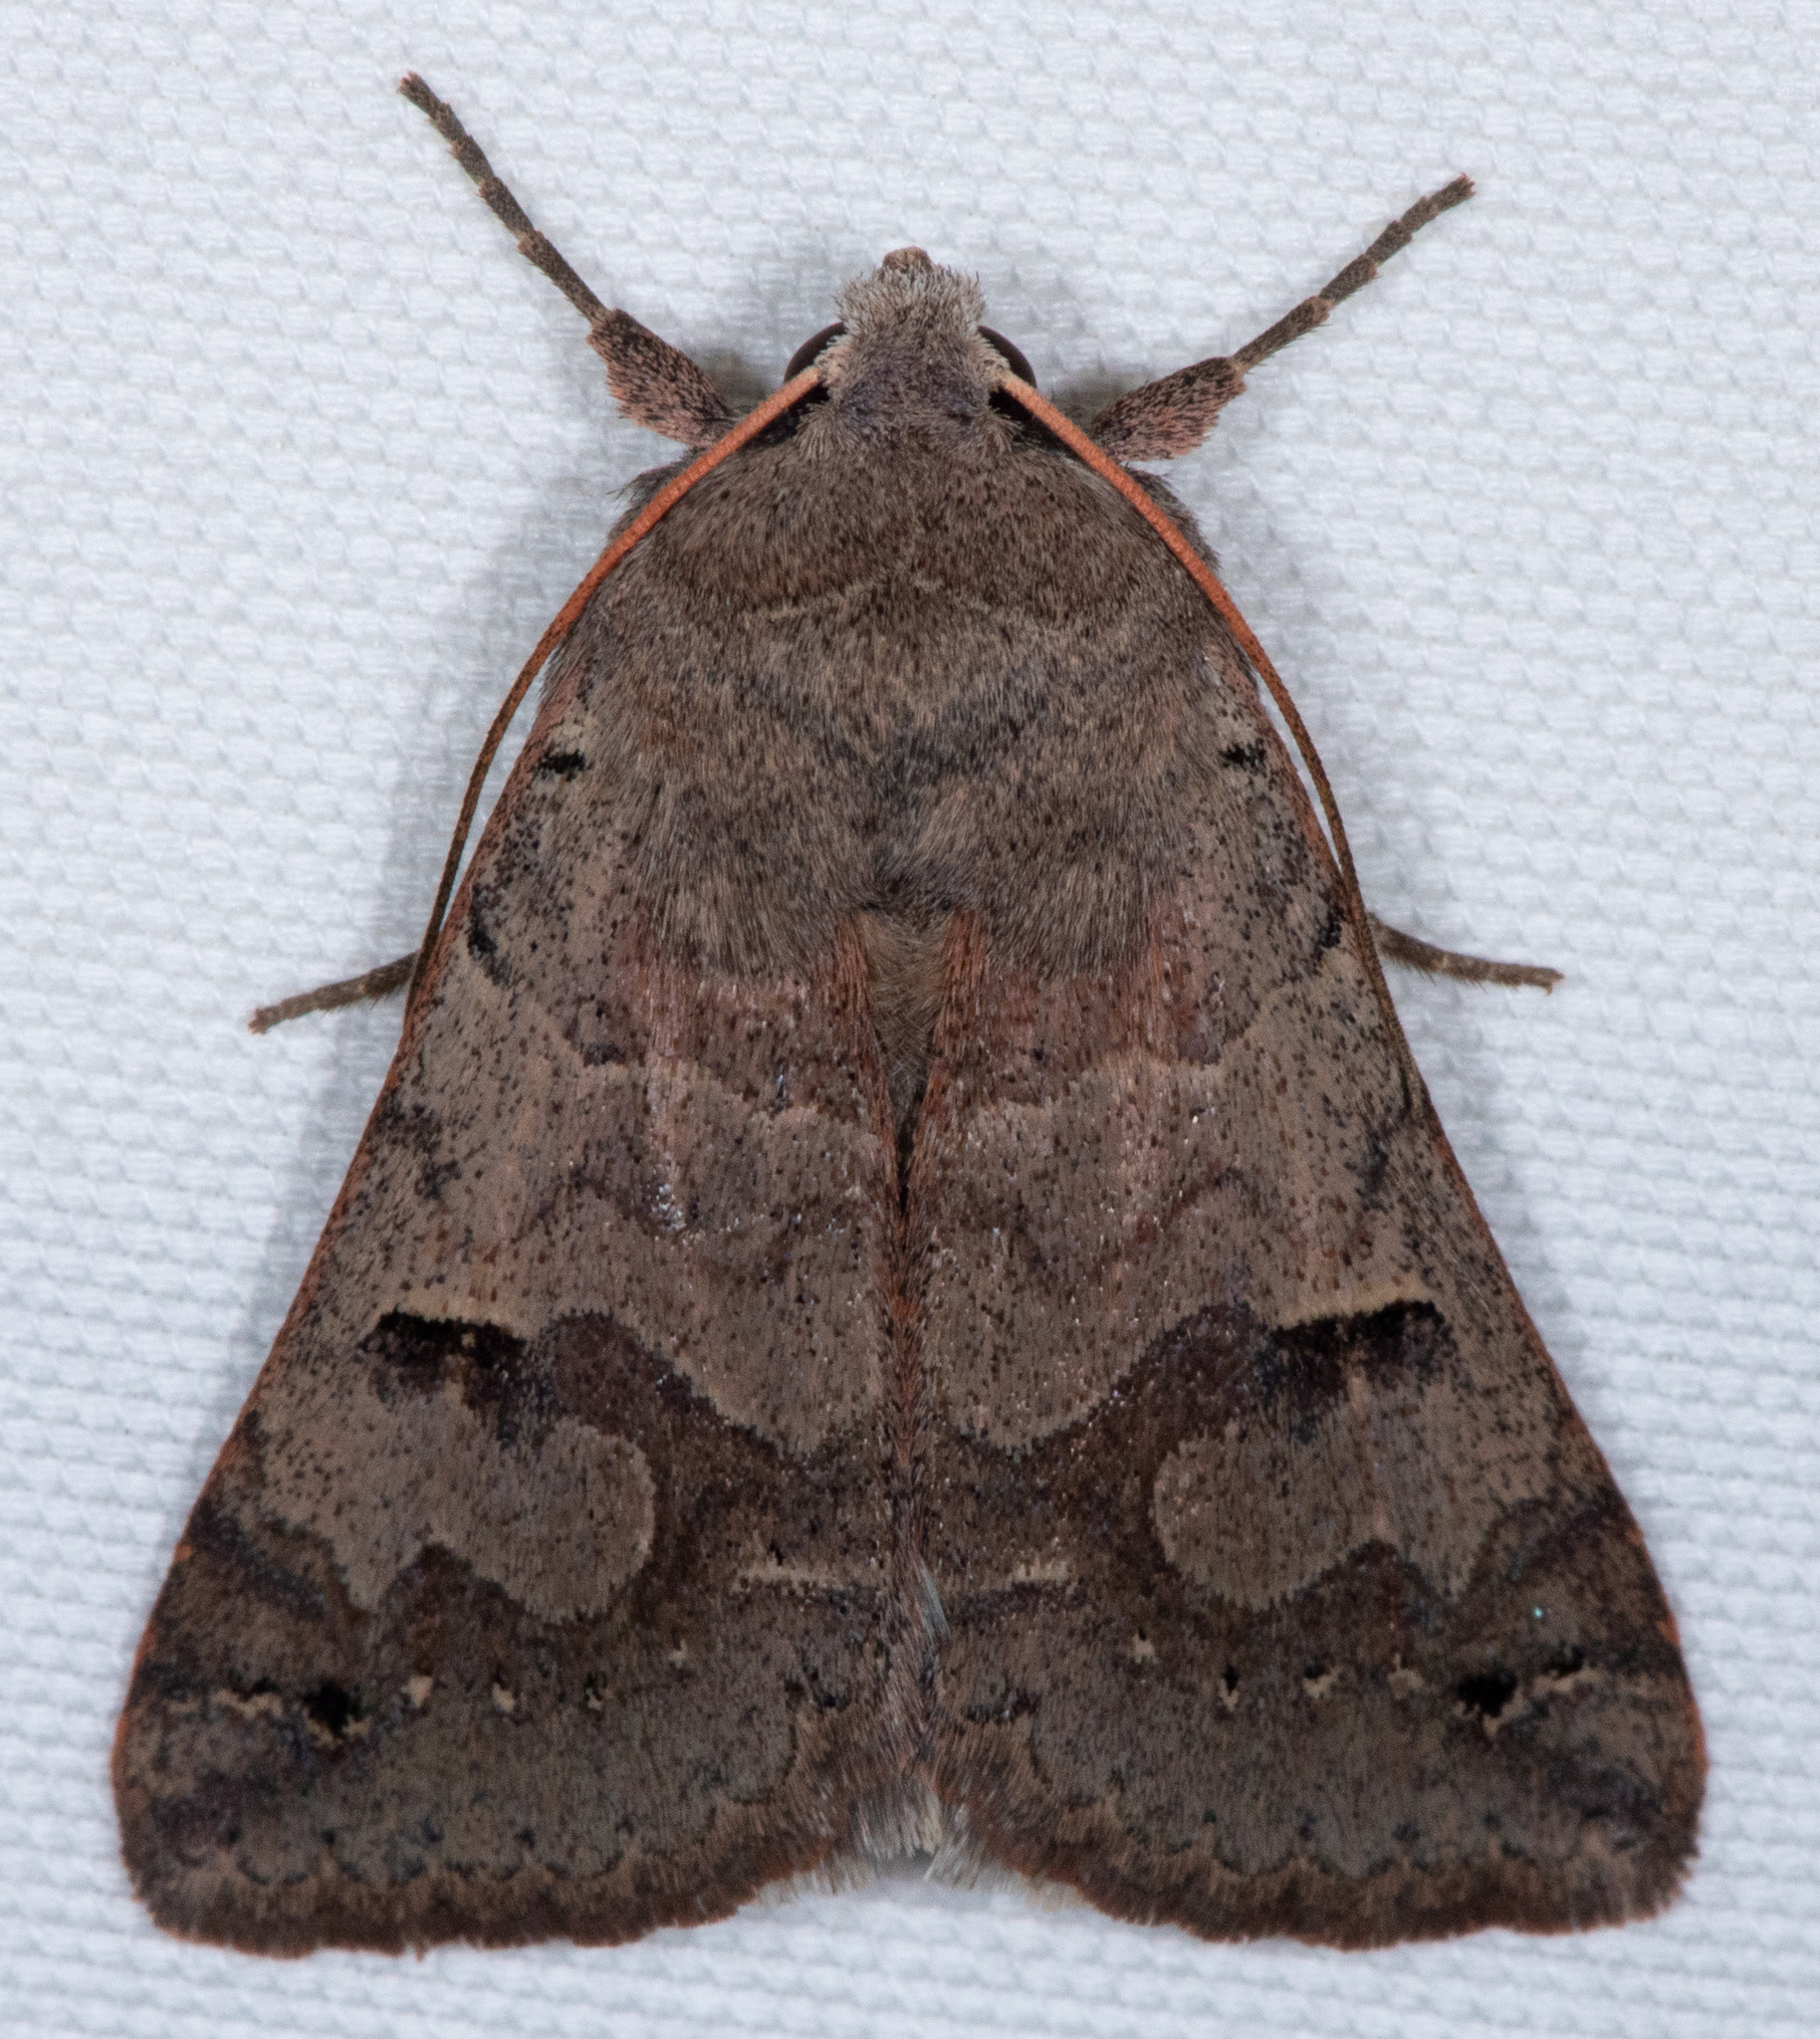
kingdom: Animalia
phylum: Arthropoda
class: Insecta
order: Lepidoptera
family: Erebidae
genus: Cissusa
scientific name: Cissusa indiscreta
